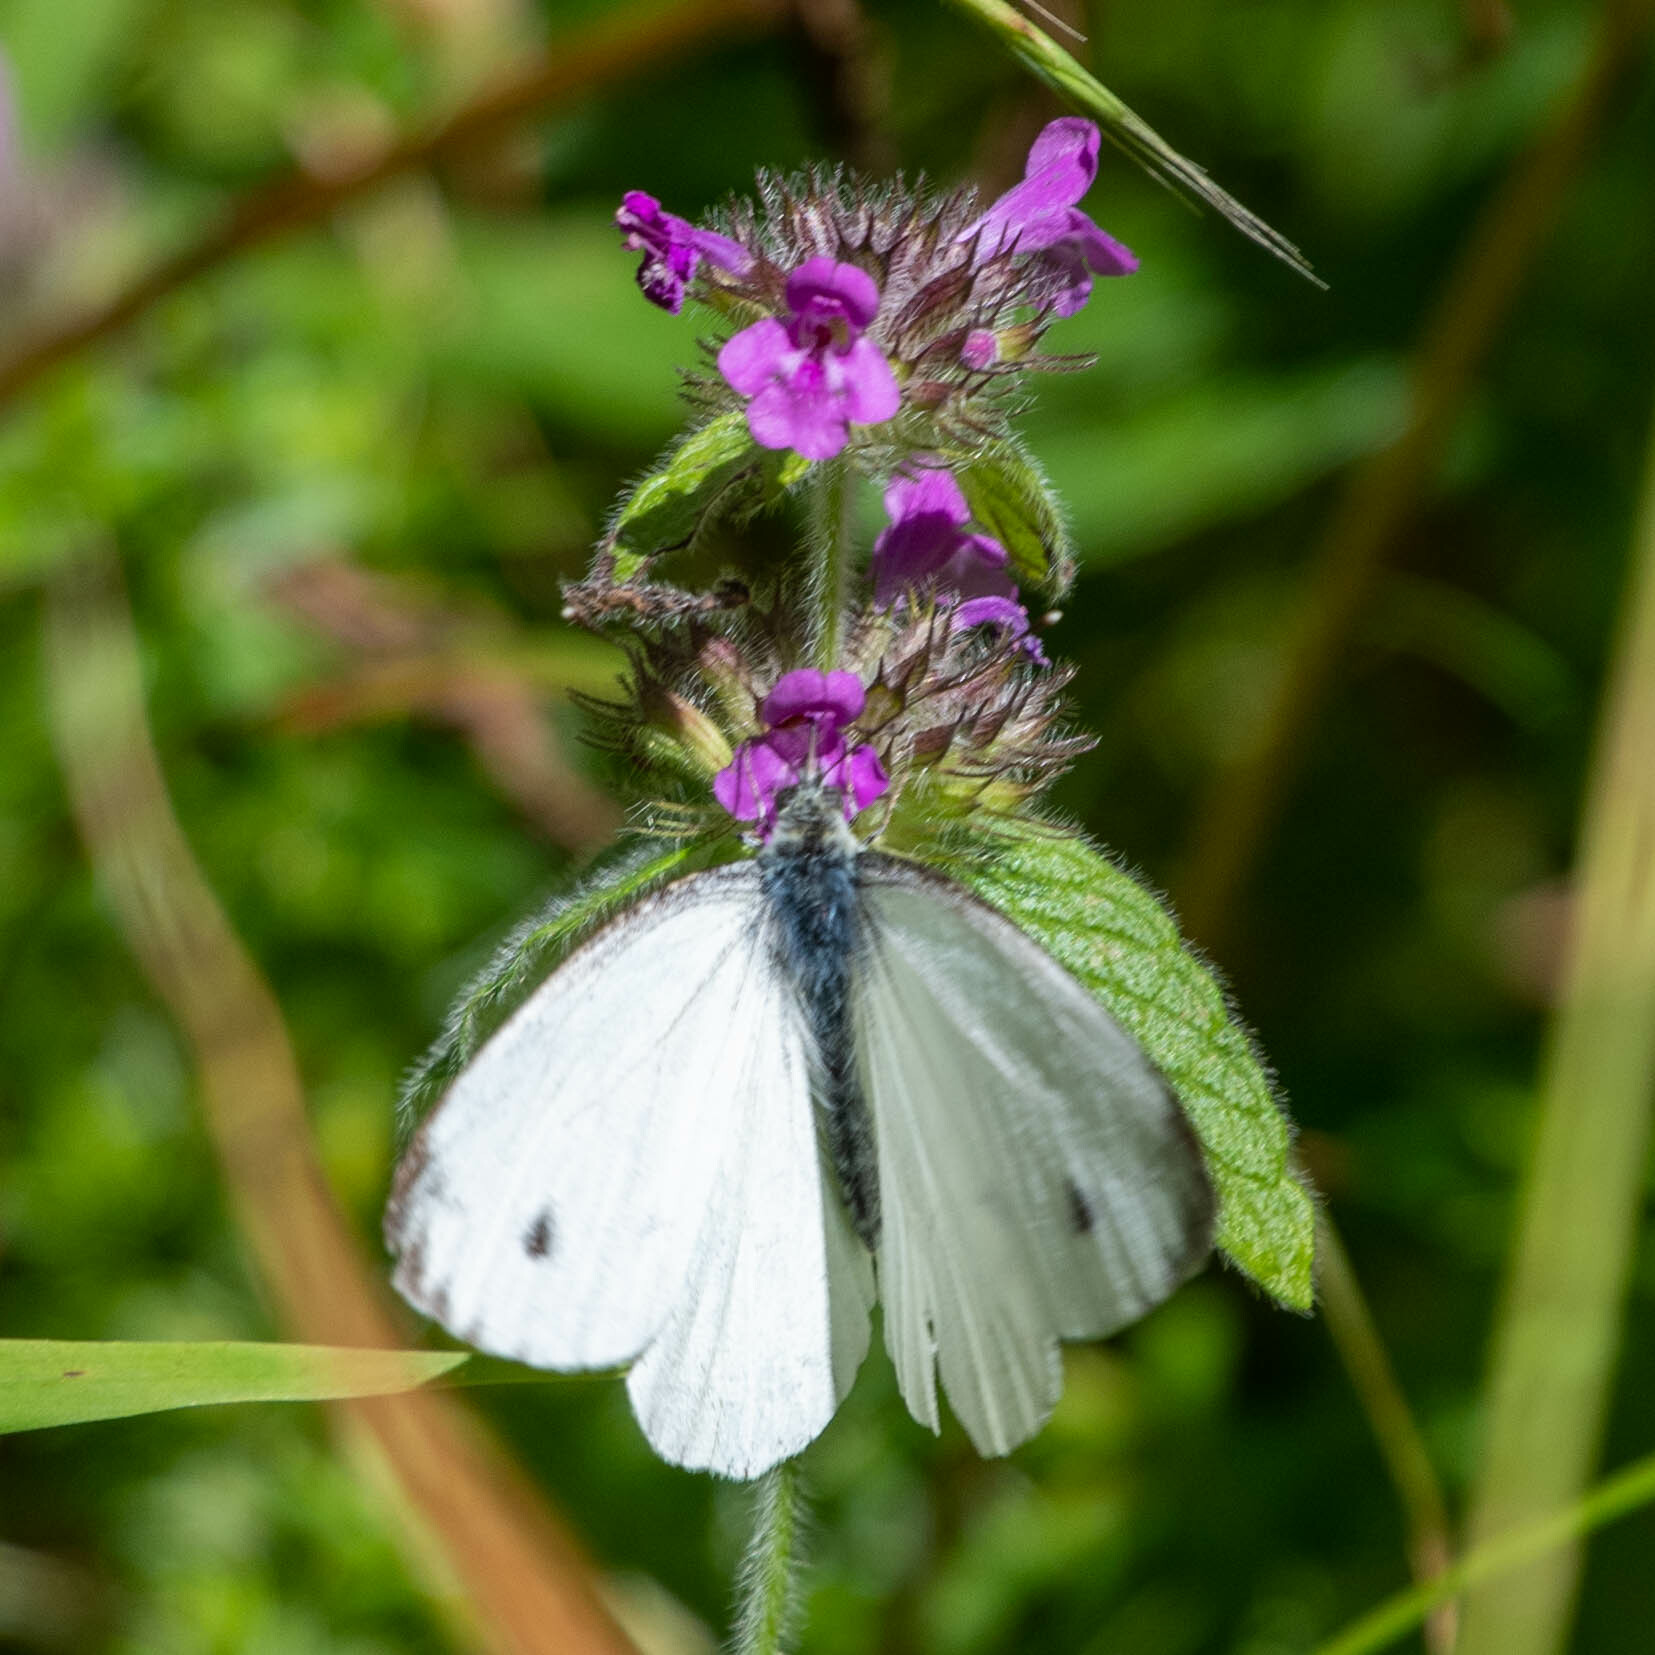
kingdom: Animalia
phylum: Arthropoda
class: Insecta
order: Lepidoptera
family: Pieridae
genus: Pieris
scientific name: Pieris napi
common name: Green-veined white
